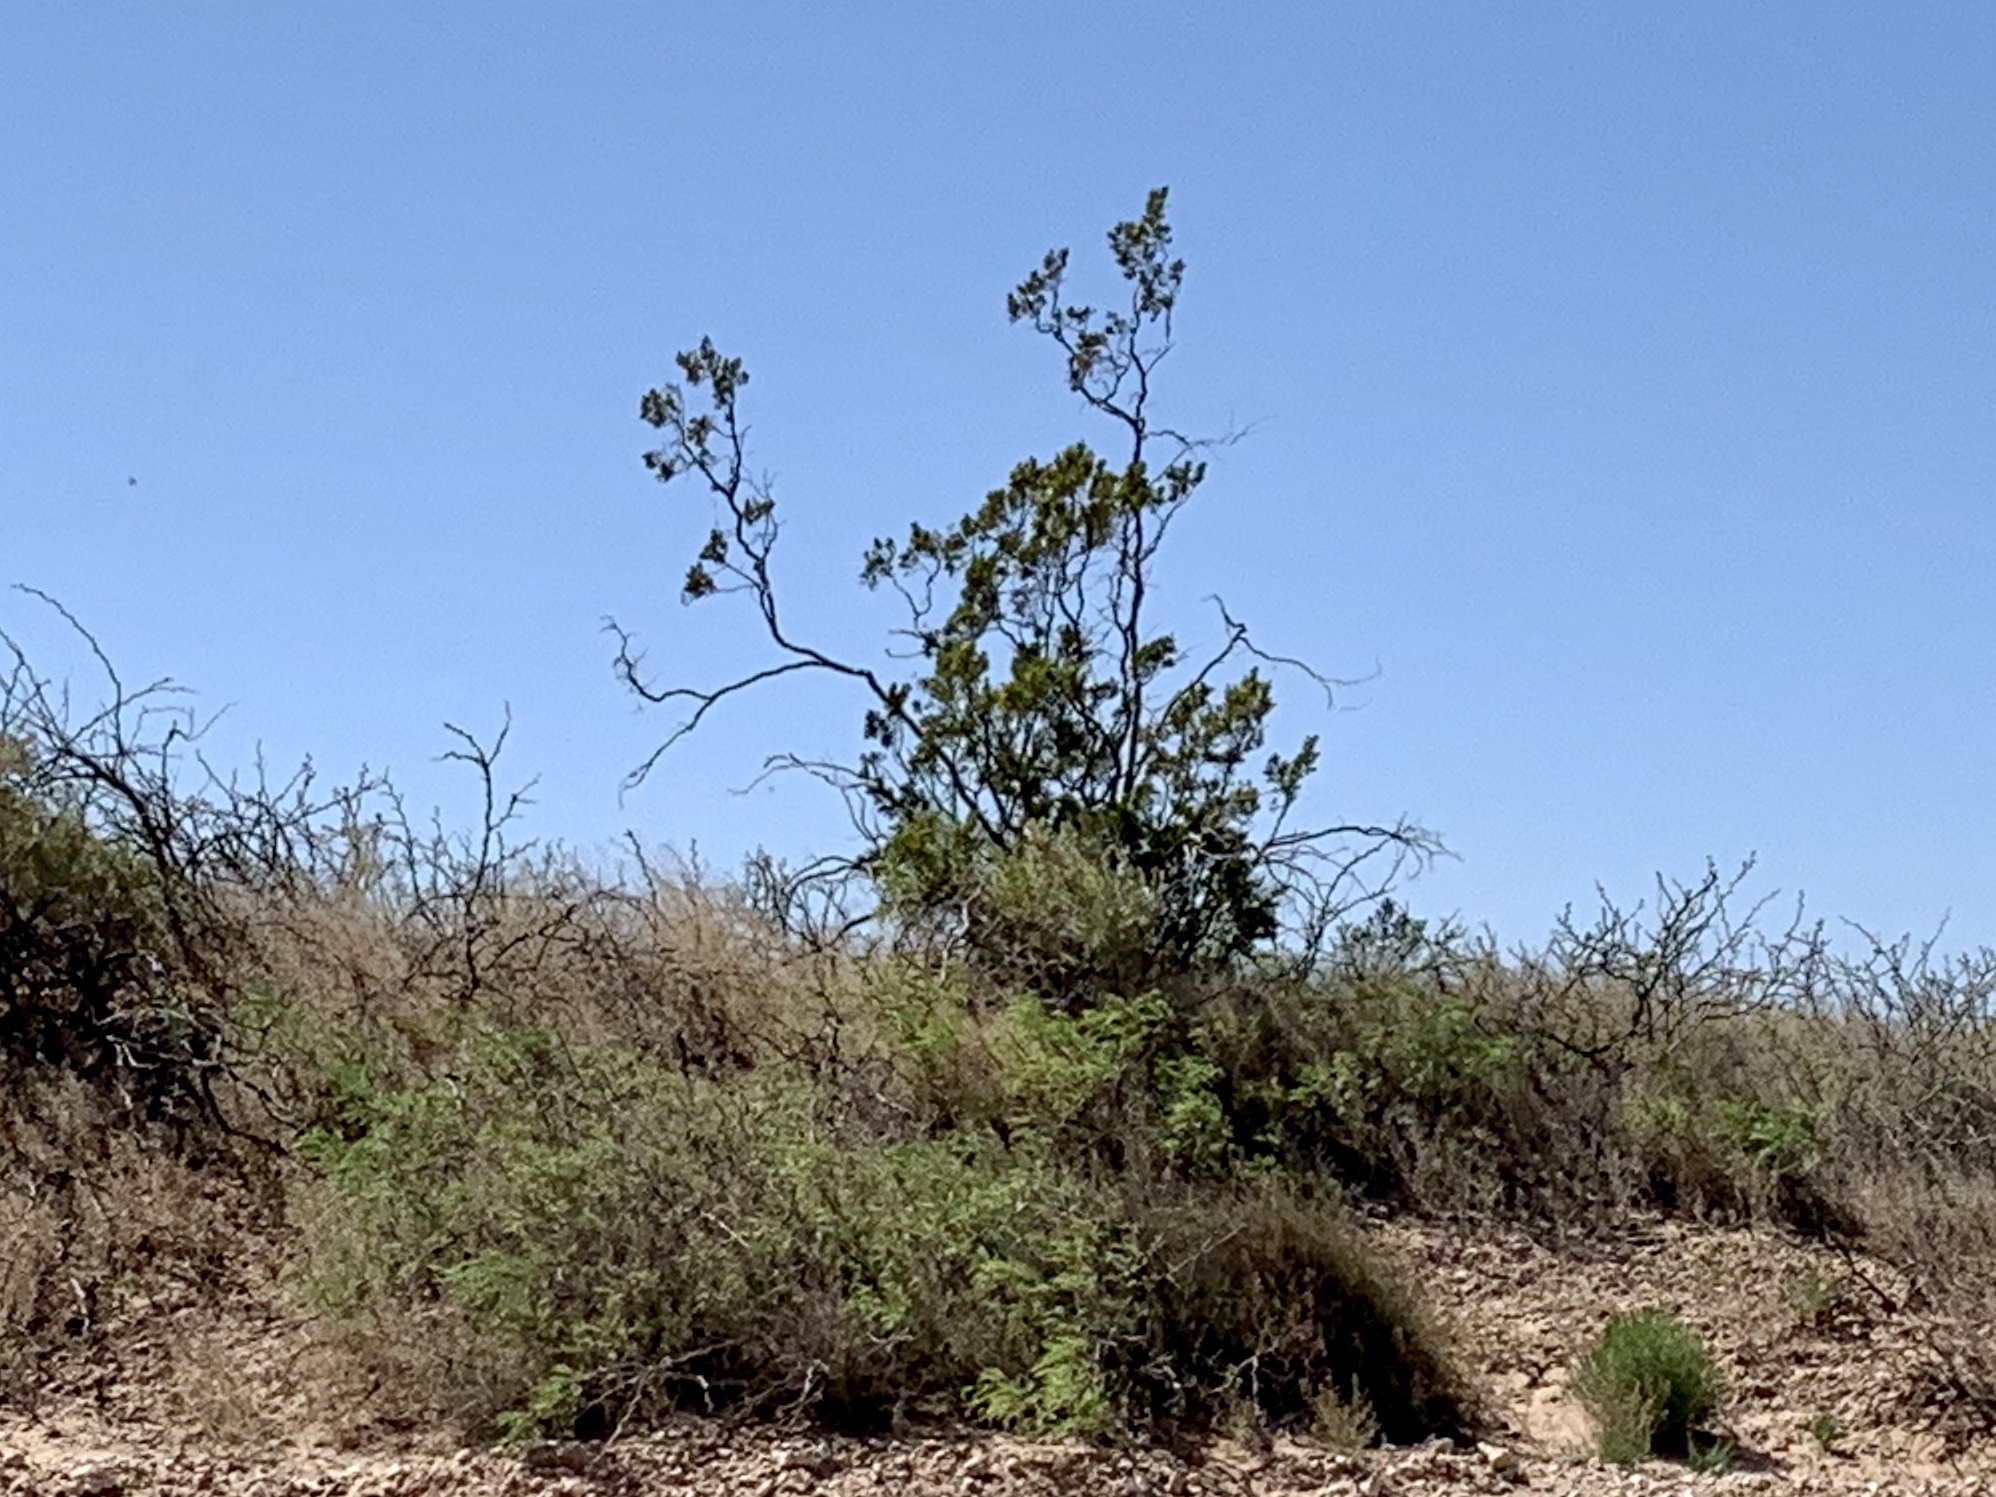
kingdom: Plantae
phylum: Tracheophyta
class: Magnoliopsida
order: Zygophyllales
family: Zygophyllaceae
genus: Larrea
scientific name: Larrea tridentata
